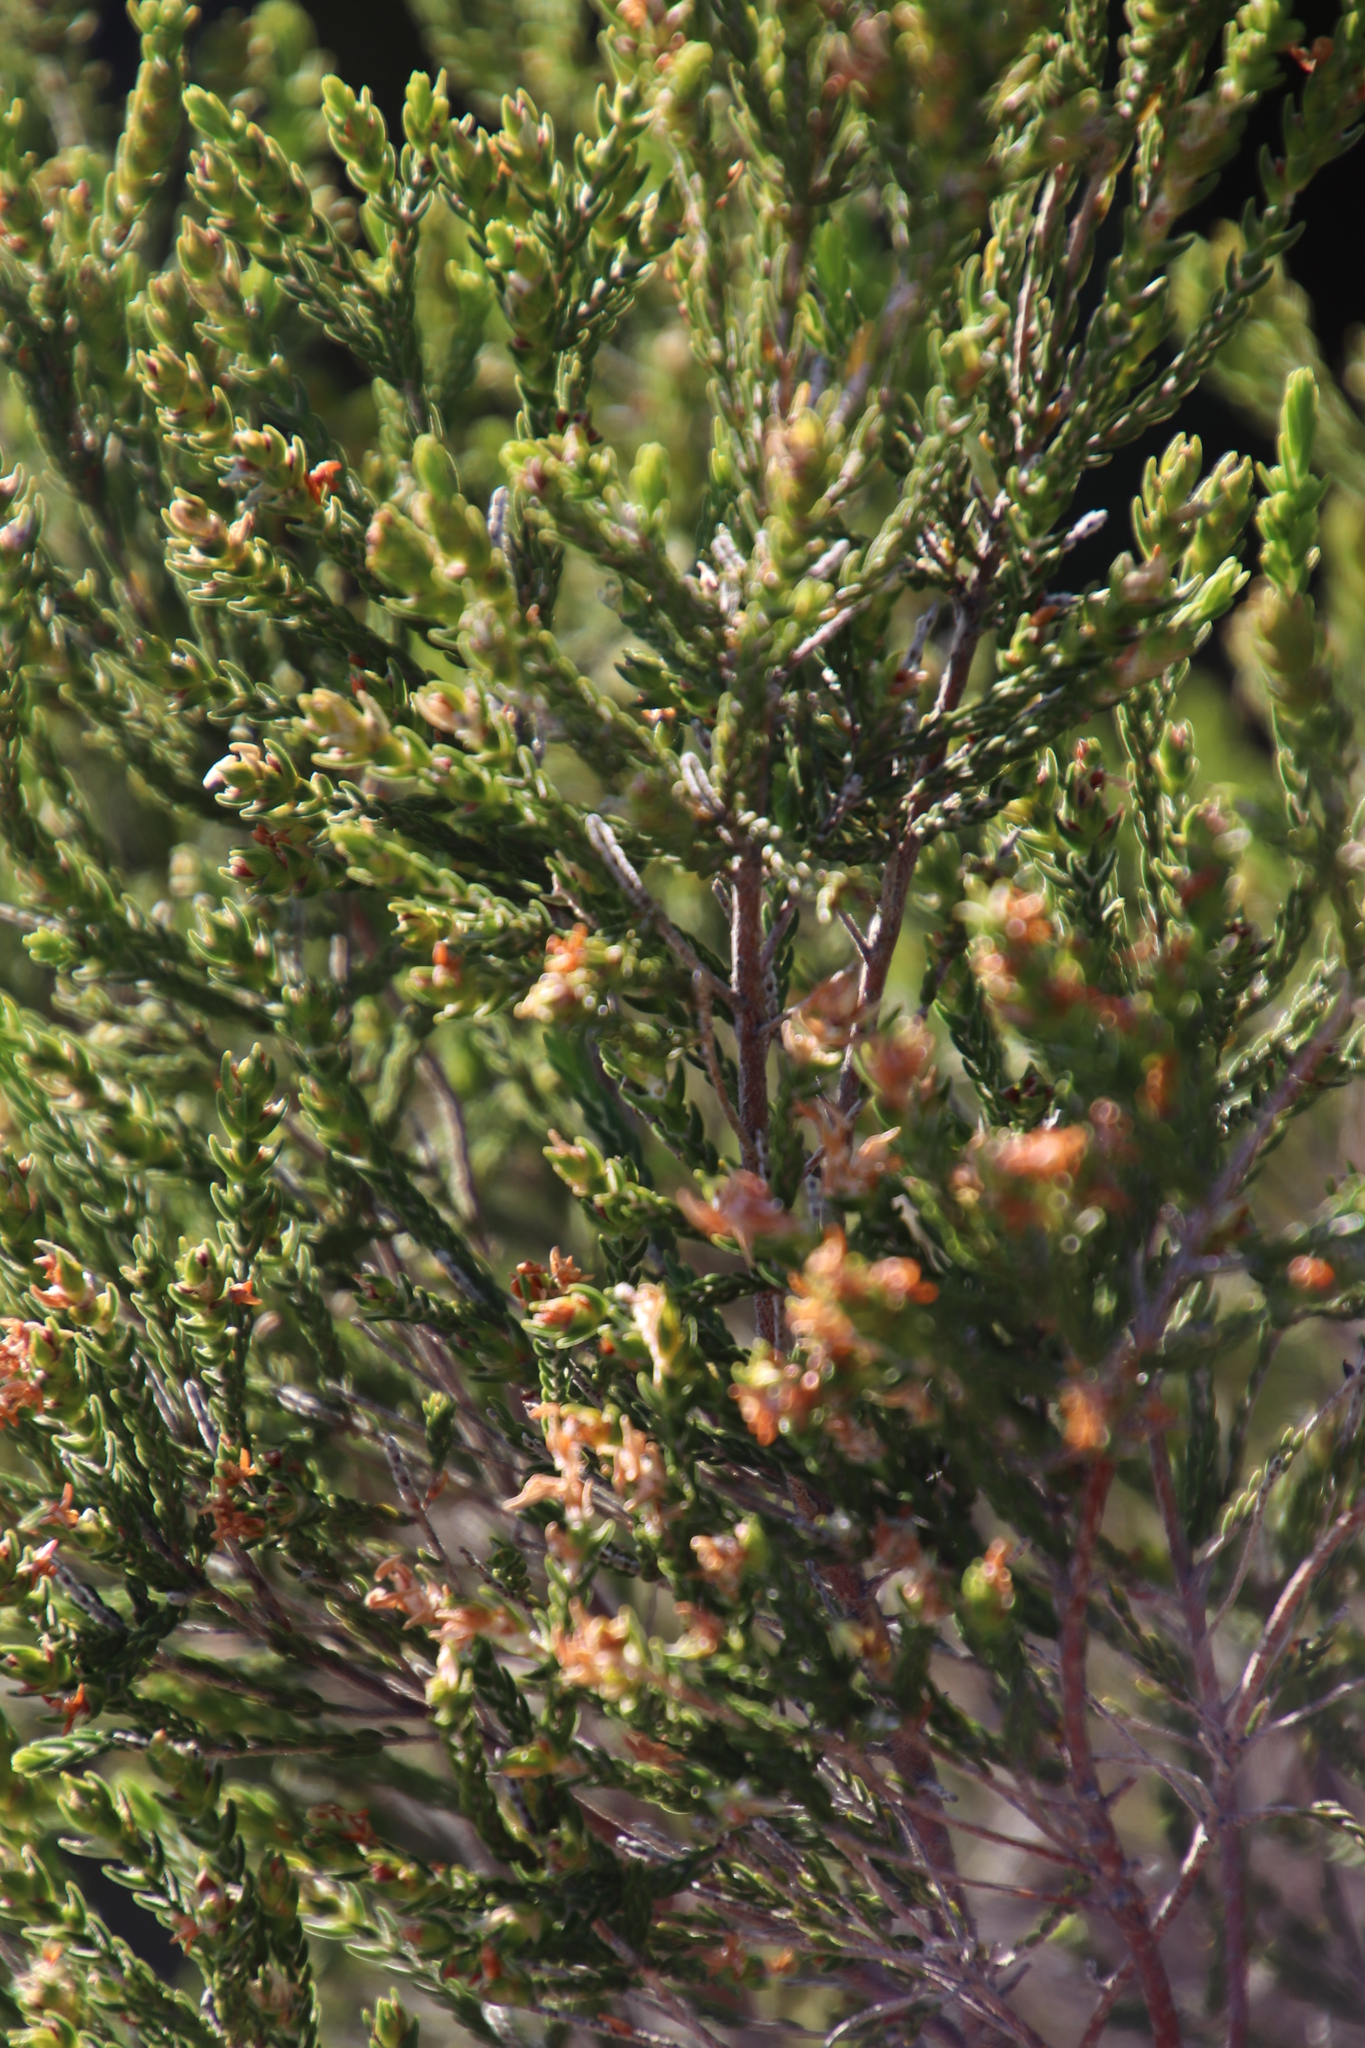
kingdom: Plantae
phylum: Tracheophyta
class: Magnoliopsida
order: Malvales
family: Thymelaeaceae
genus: Passerina
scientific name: Passerina corymbosa
